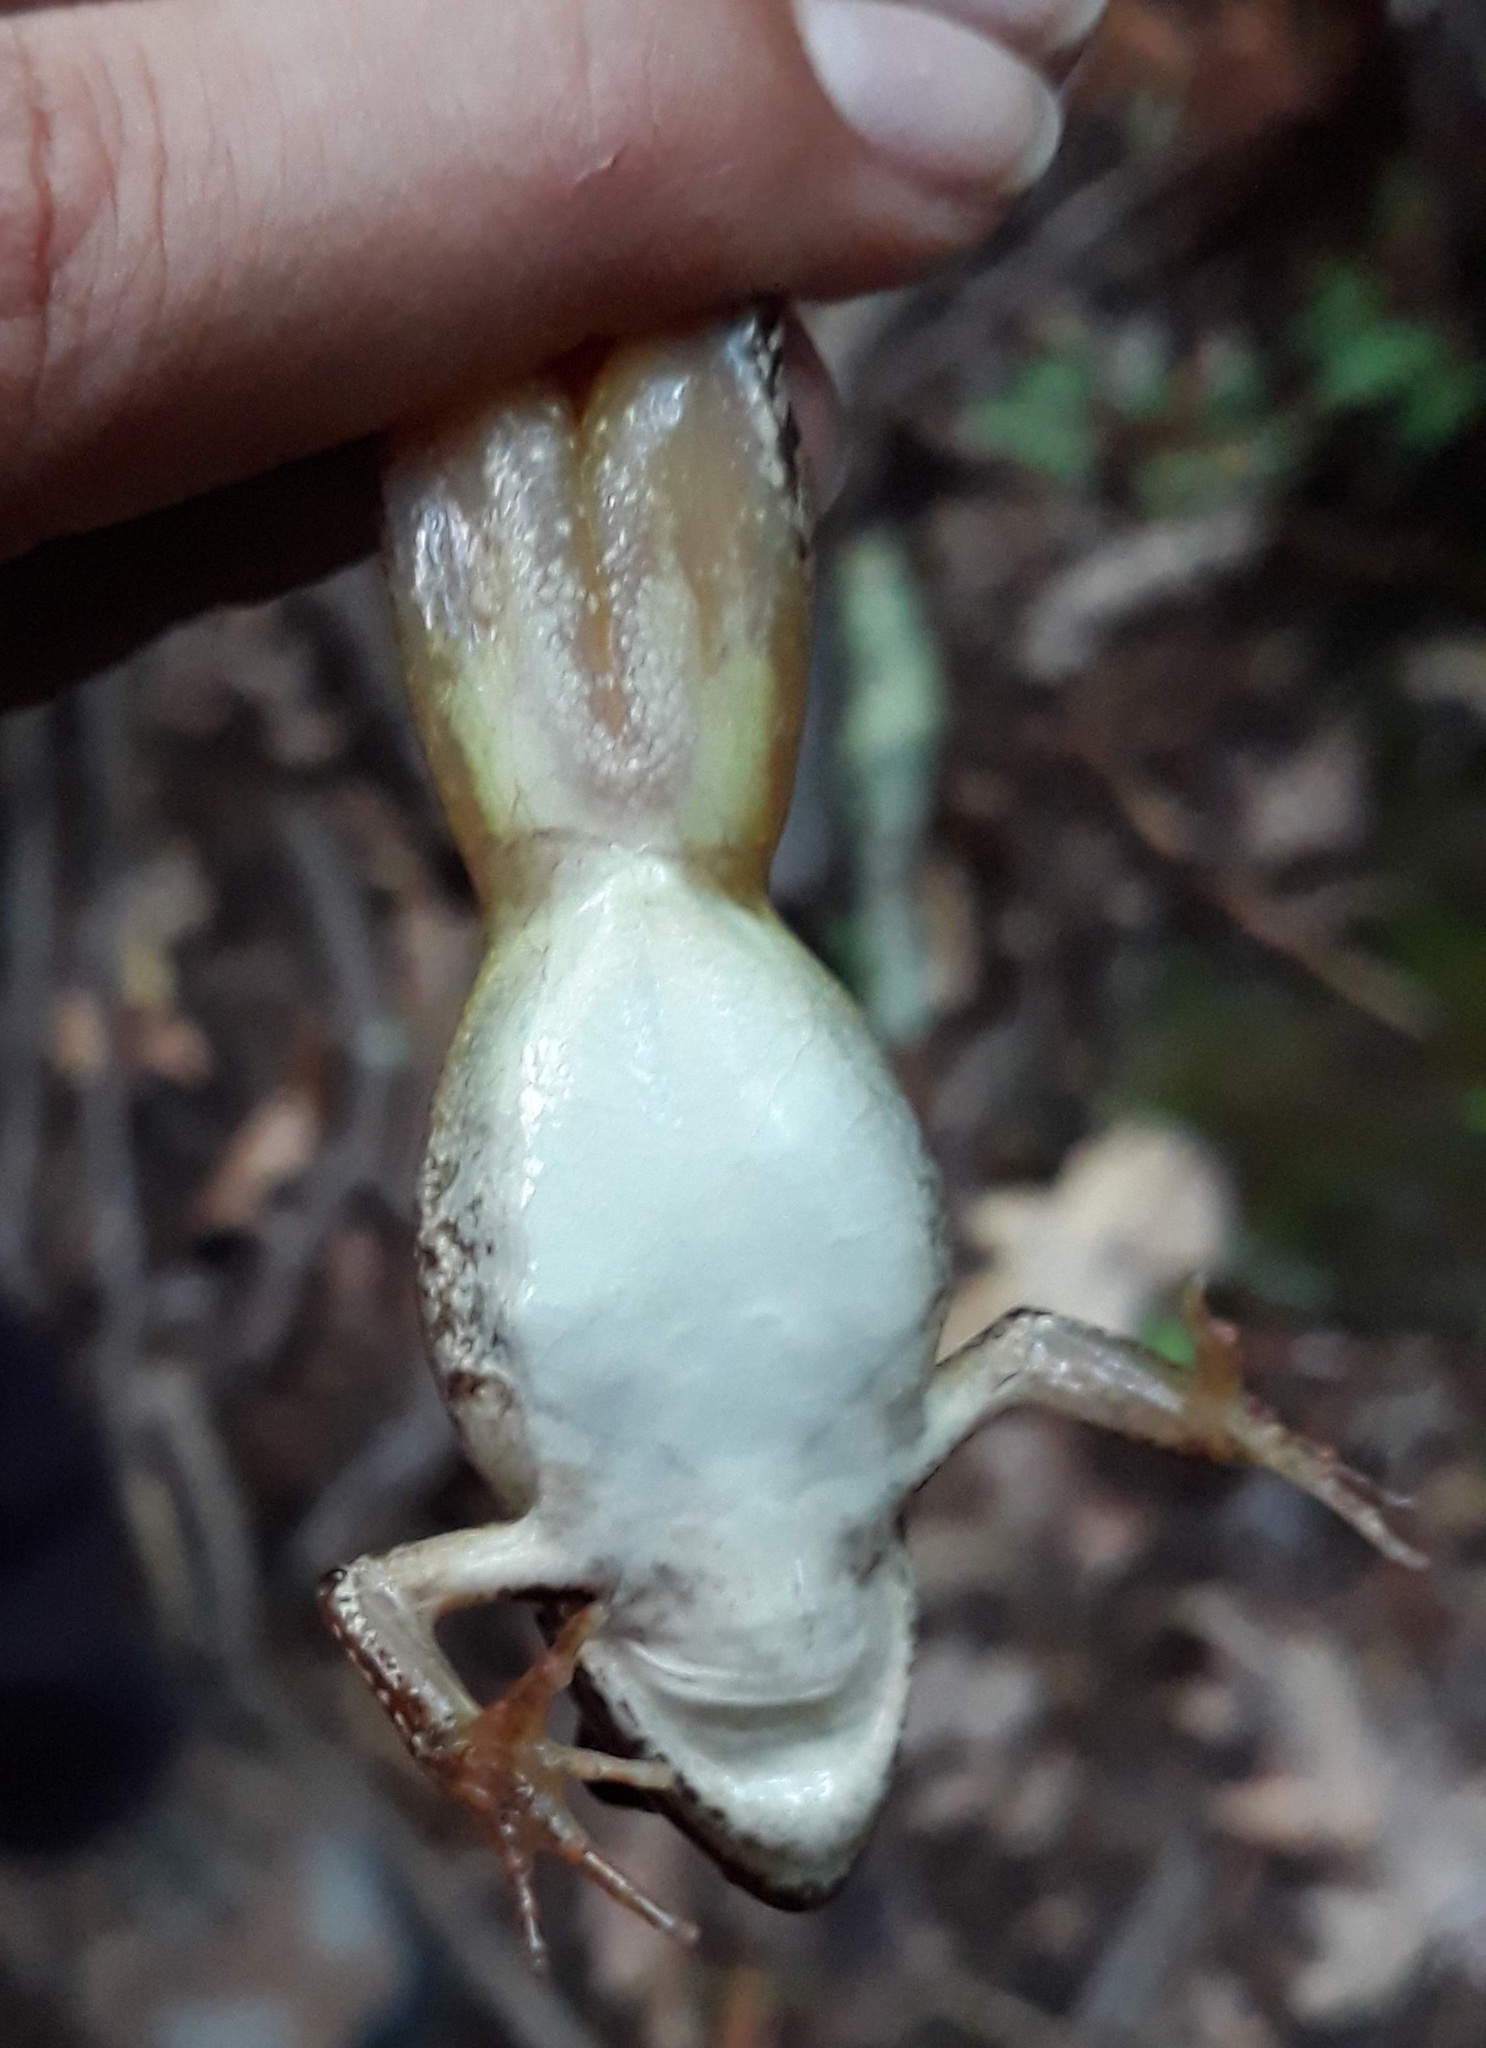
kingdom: Animalia
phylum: Chordata
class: Amphibia
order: Anura
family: Ranidae
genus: Lithobates
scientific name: Lithobates sylvaticus
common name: Wood frog
